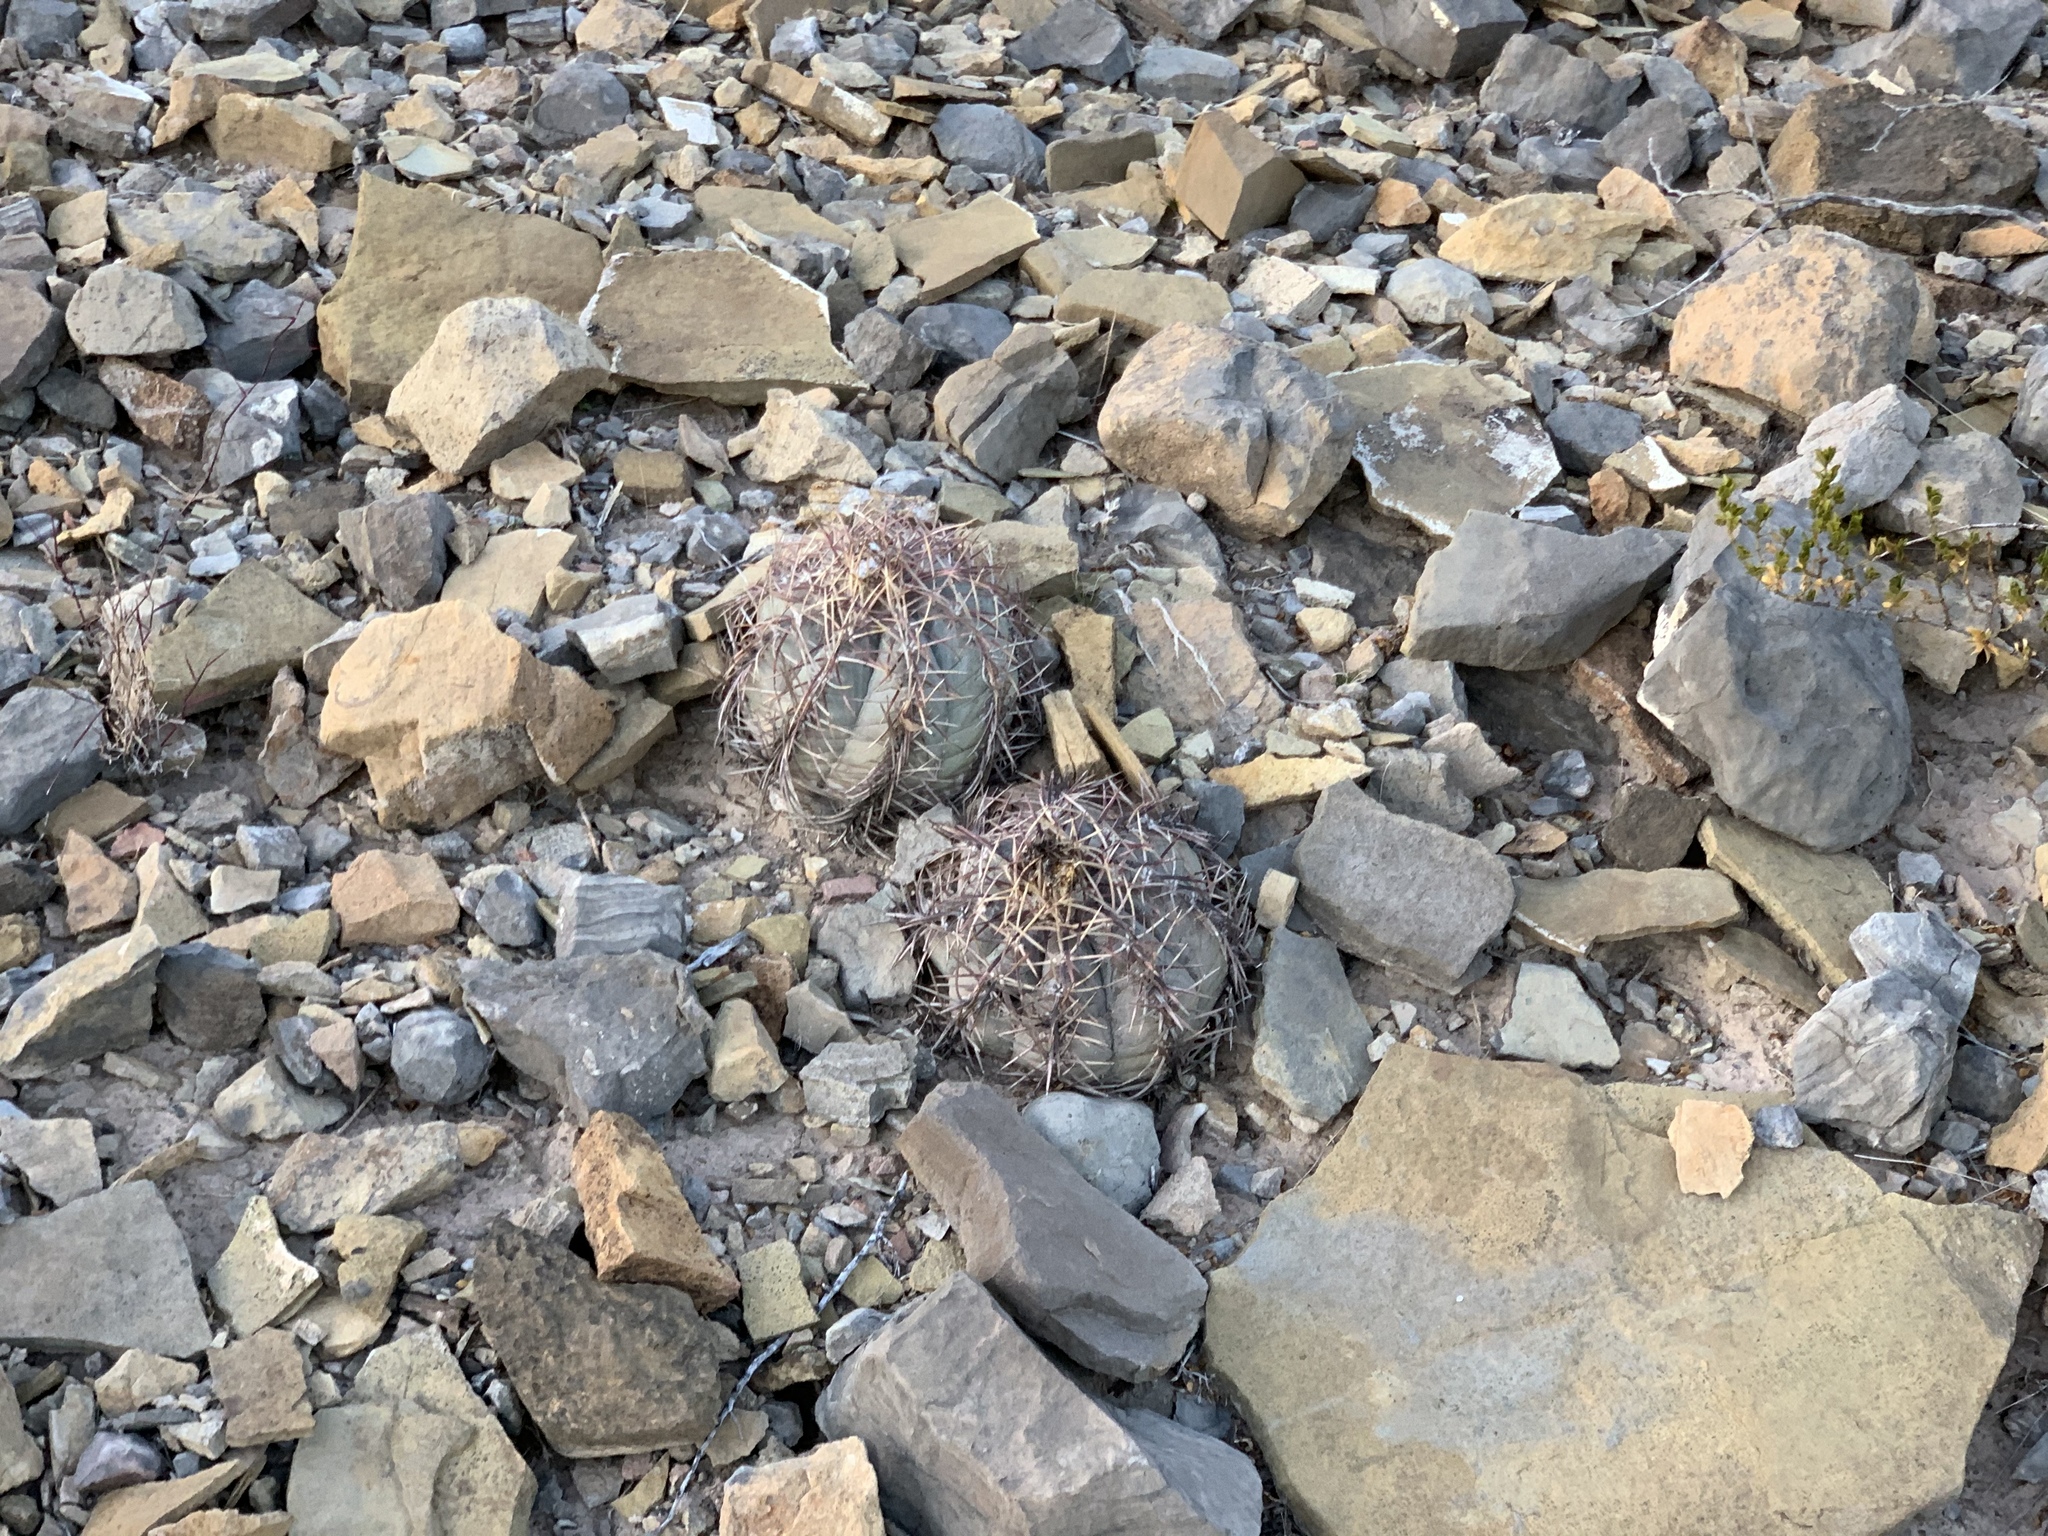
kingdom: Plantae
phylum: Tracheophyta
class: Magnoliopsida
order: Caryophyllales
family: Cactaceae
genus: Echinocactus
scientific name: Echinocactus horizonthalonius
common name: Devilshead
